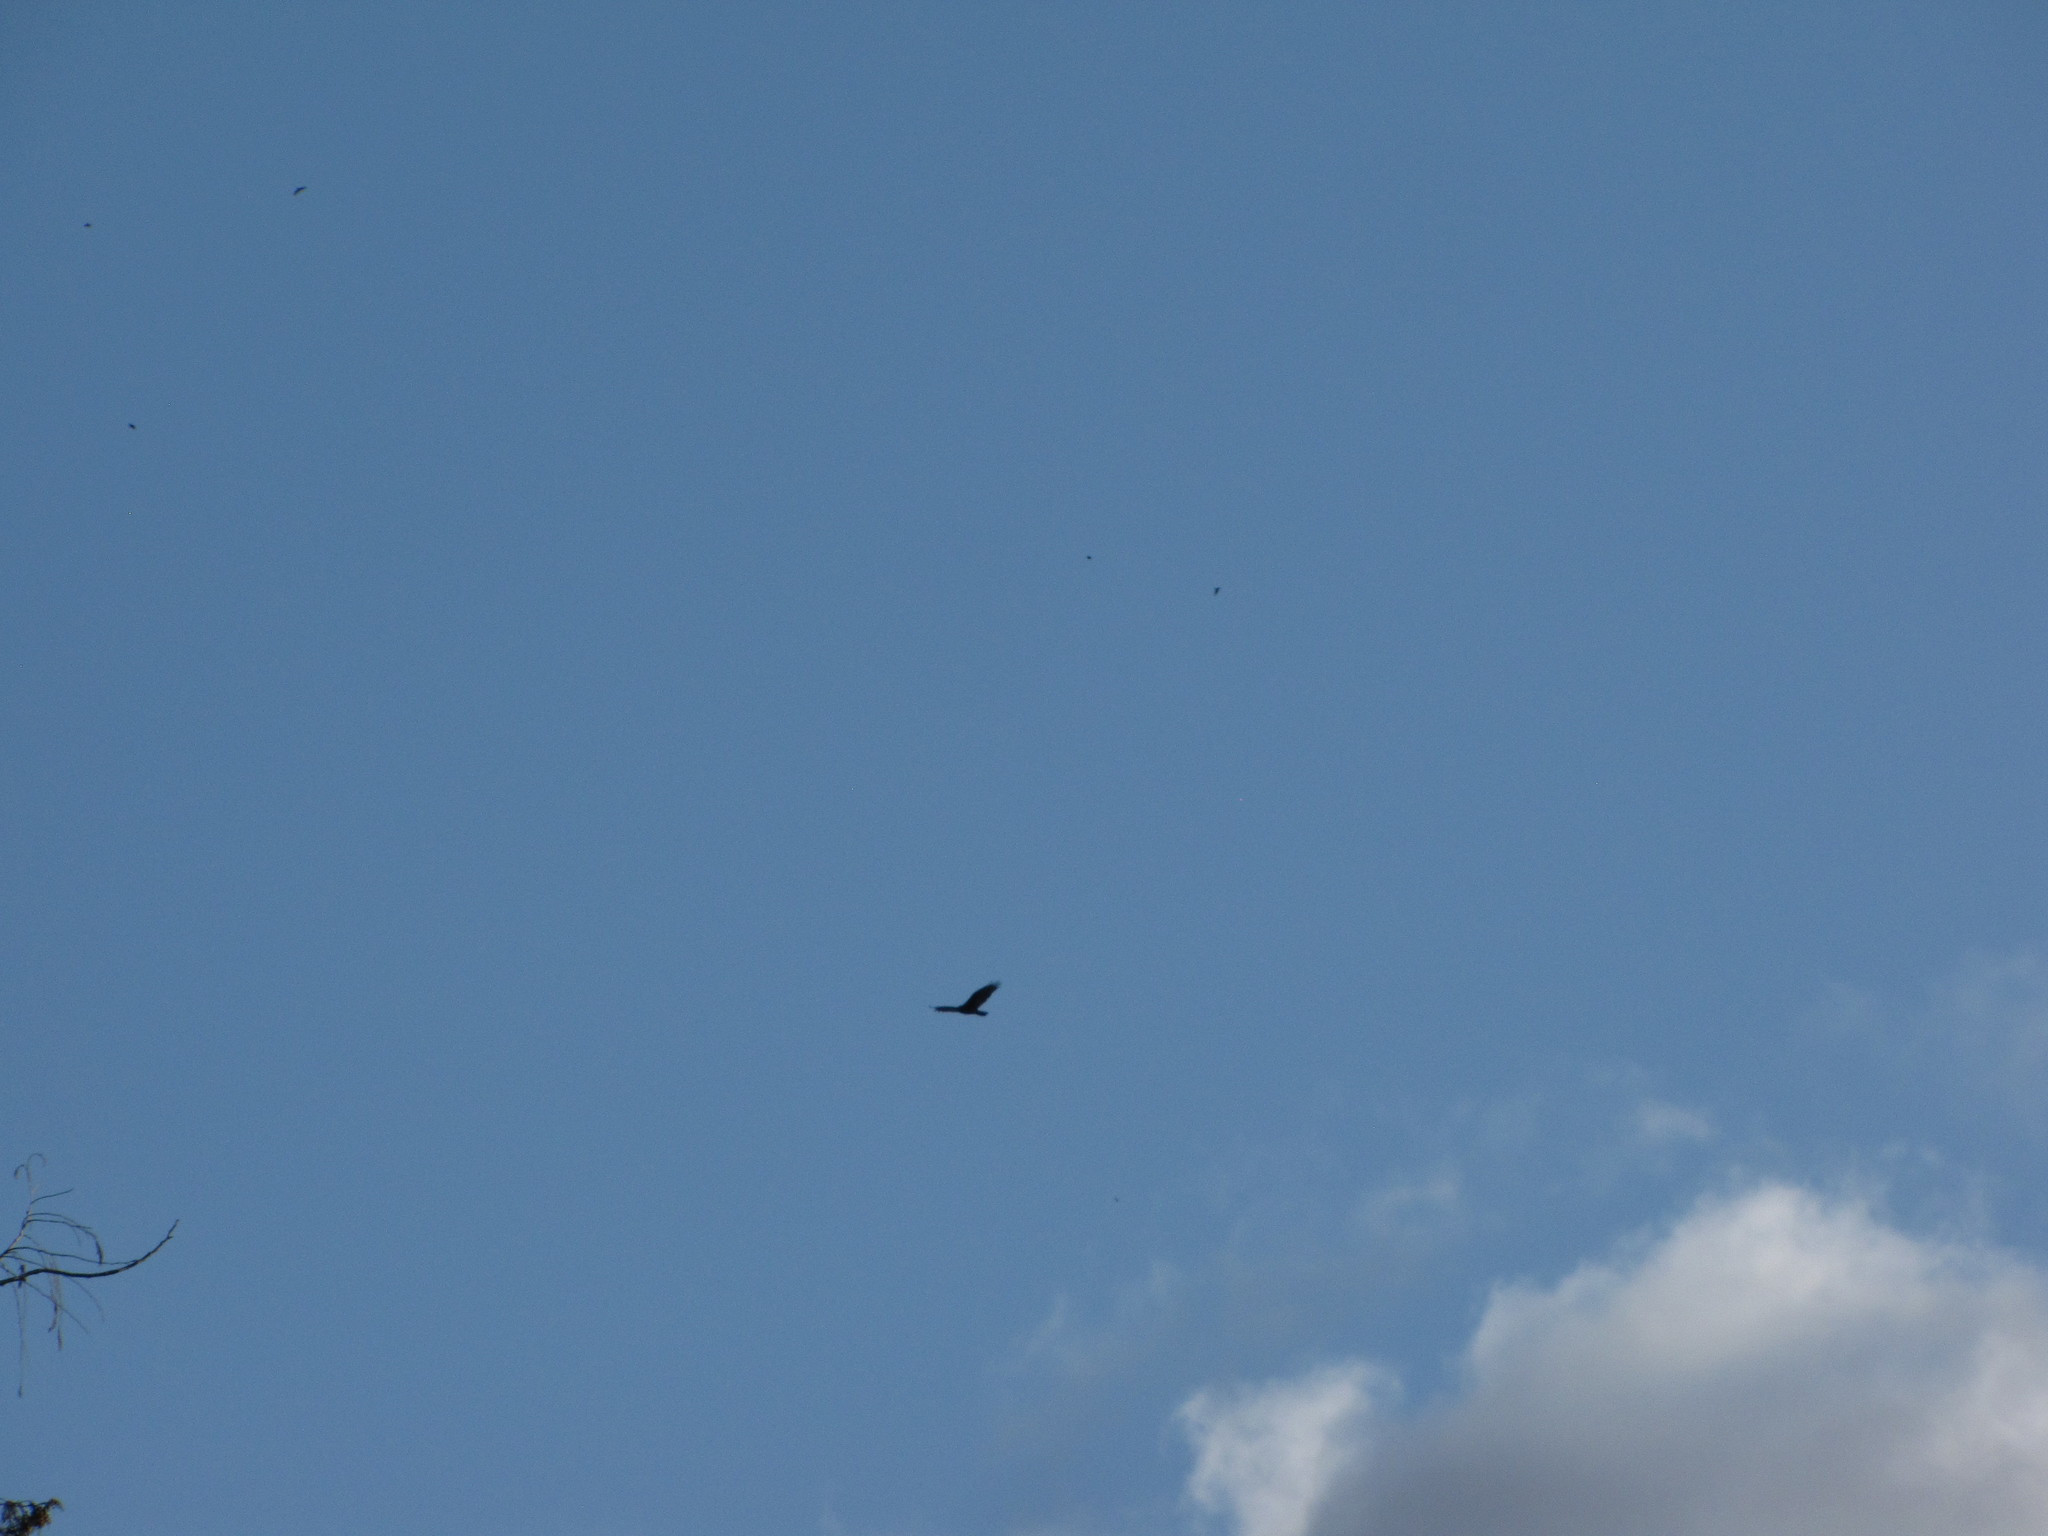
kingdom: Animalia
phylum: Chordata
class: Aves
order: Accipitriformes
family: Cathartidae
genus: Cathartes
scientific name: Cathartes aura
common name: Turkey vulture
